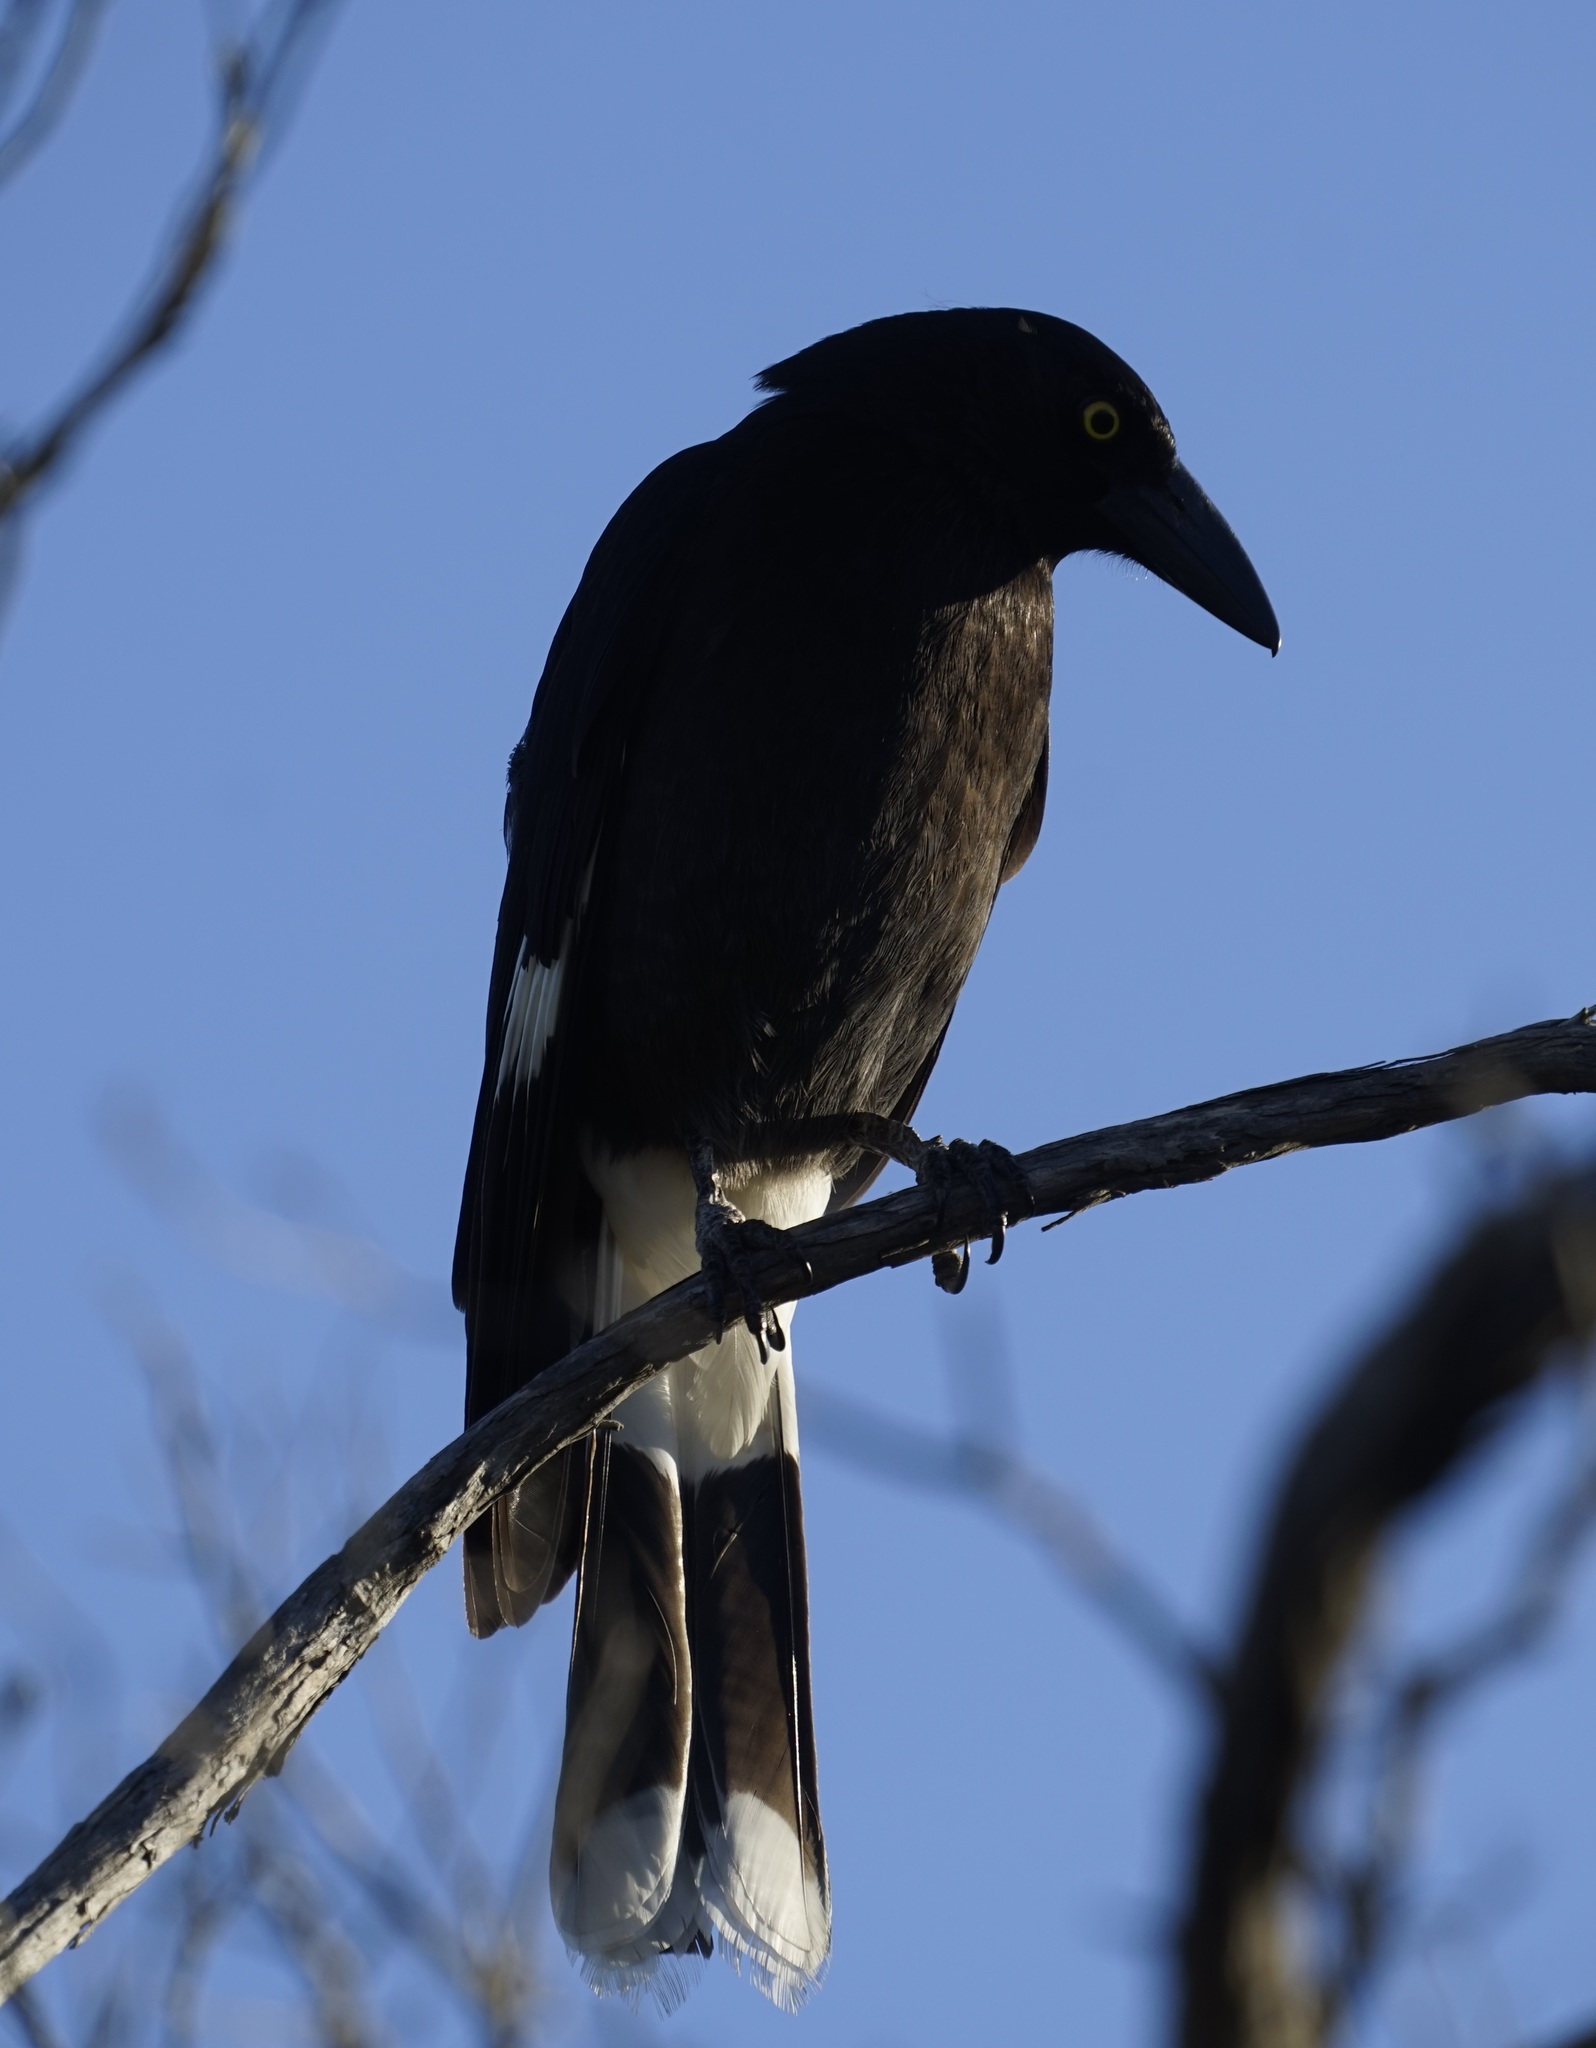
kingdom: Animalia
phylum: Chordata
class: Aves
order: Passeriformes
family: Cracticidae
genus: Strepera
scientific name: Strepera graculina
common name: Pied currawong
